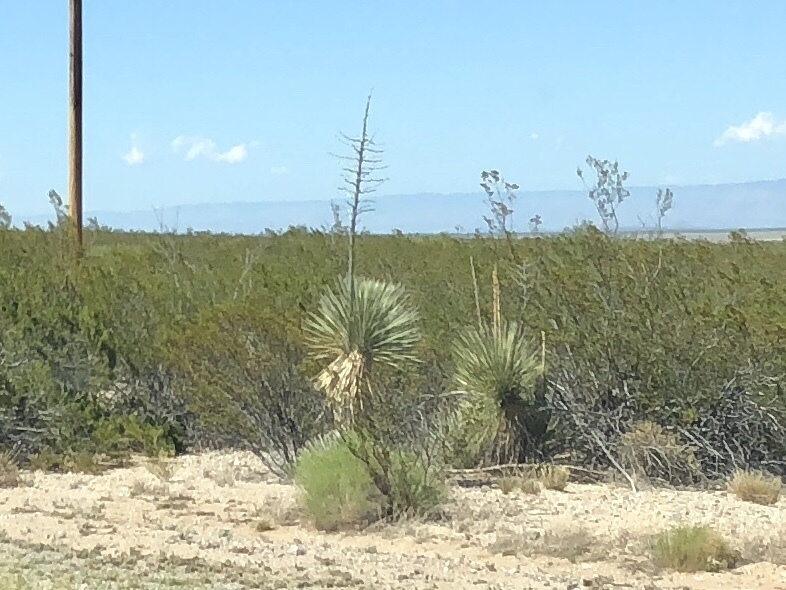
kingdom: Plantae
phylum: Tracheophyta
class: Liliopsida
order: Asparagales
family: Asparagaceae
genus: Yucca
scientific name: Yucca elata
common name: Palmella
